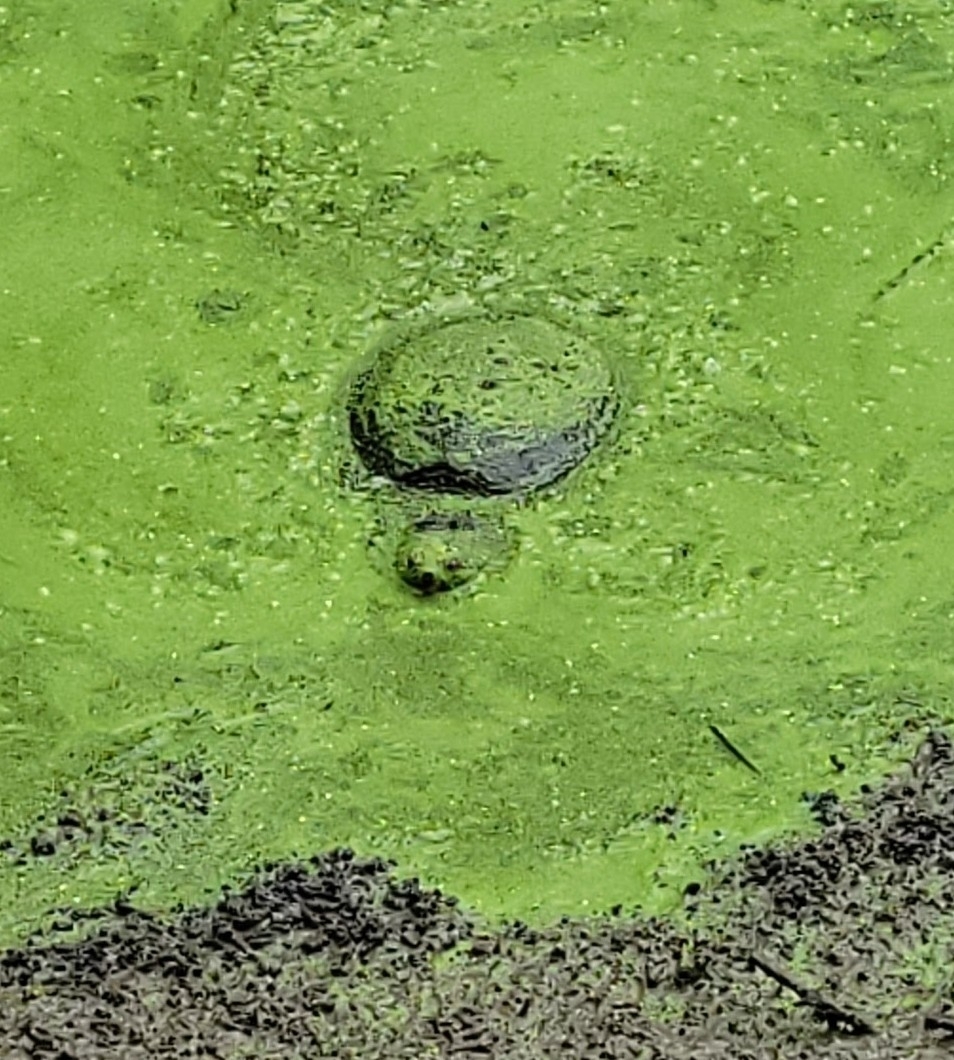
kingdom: Animalia
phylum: Chordata
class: Testudines
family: Chelydridae
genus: Chelydra
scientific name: Chelydra serpentina
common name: Common snapping turtle
